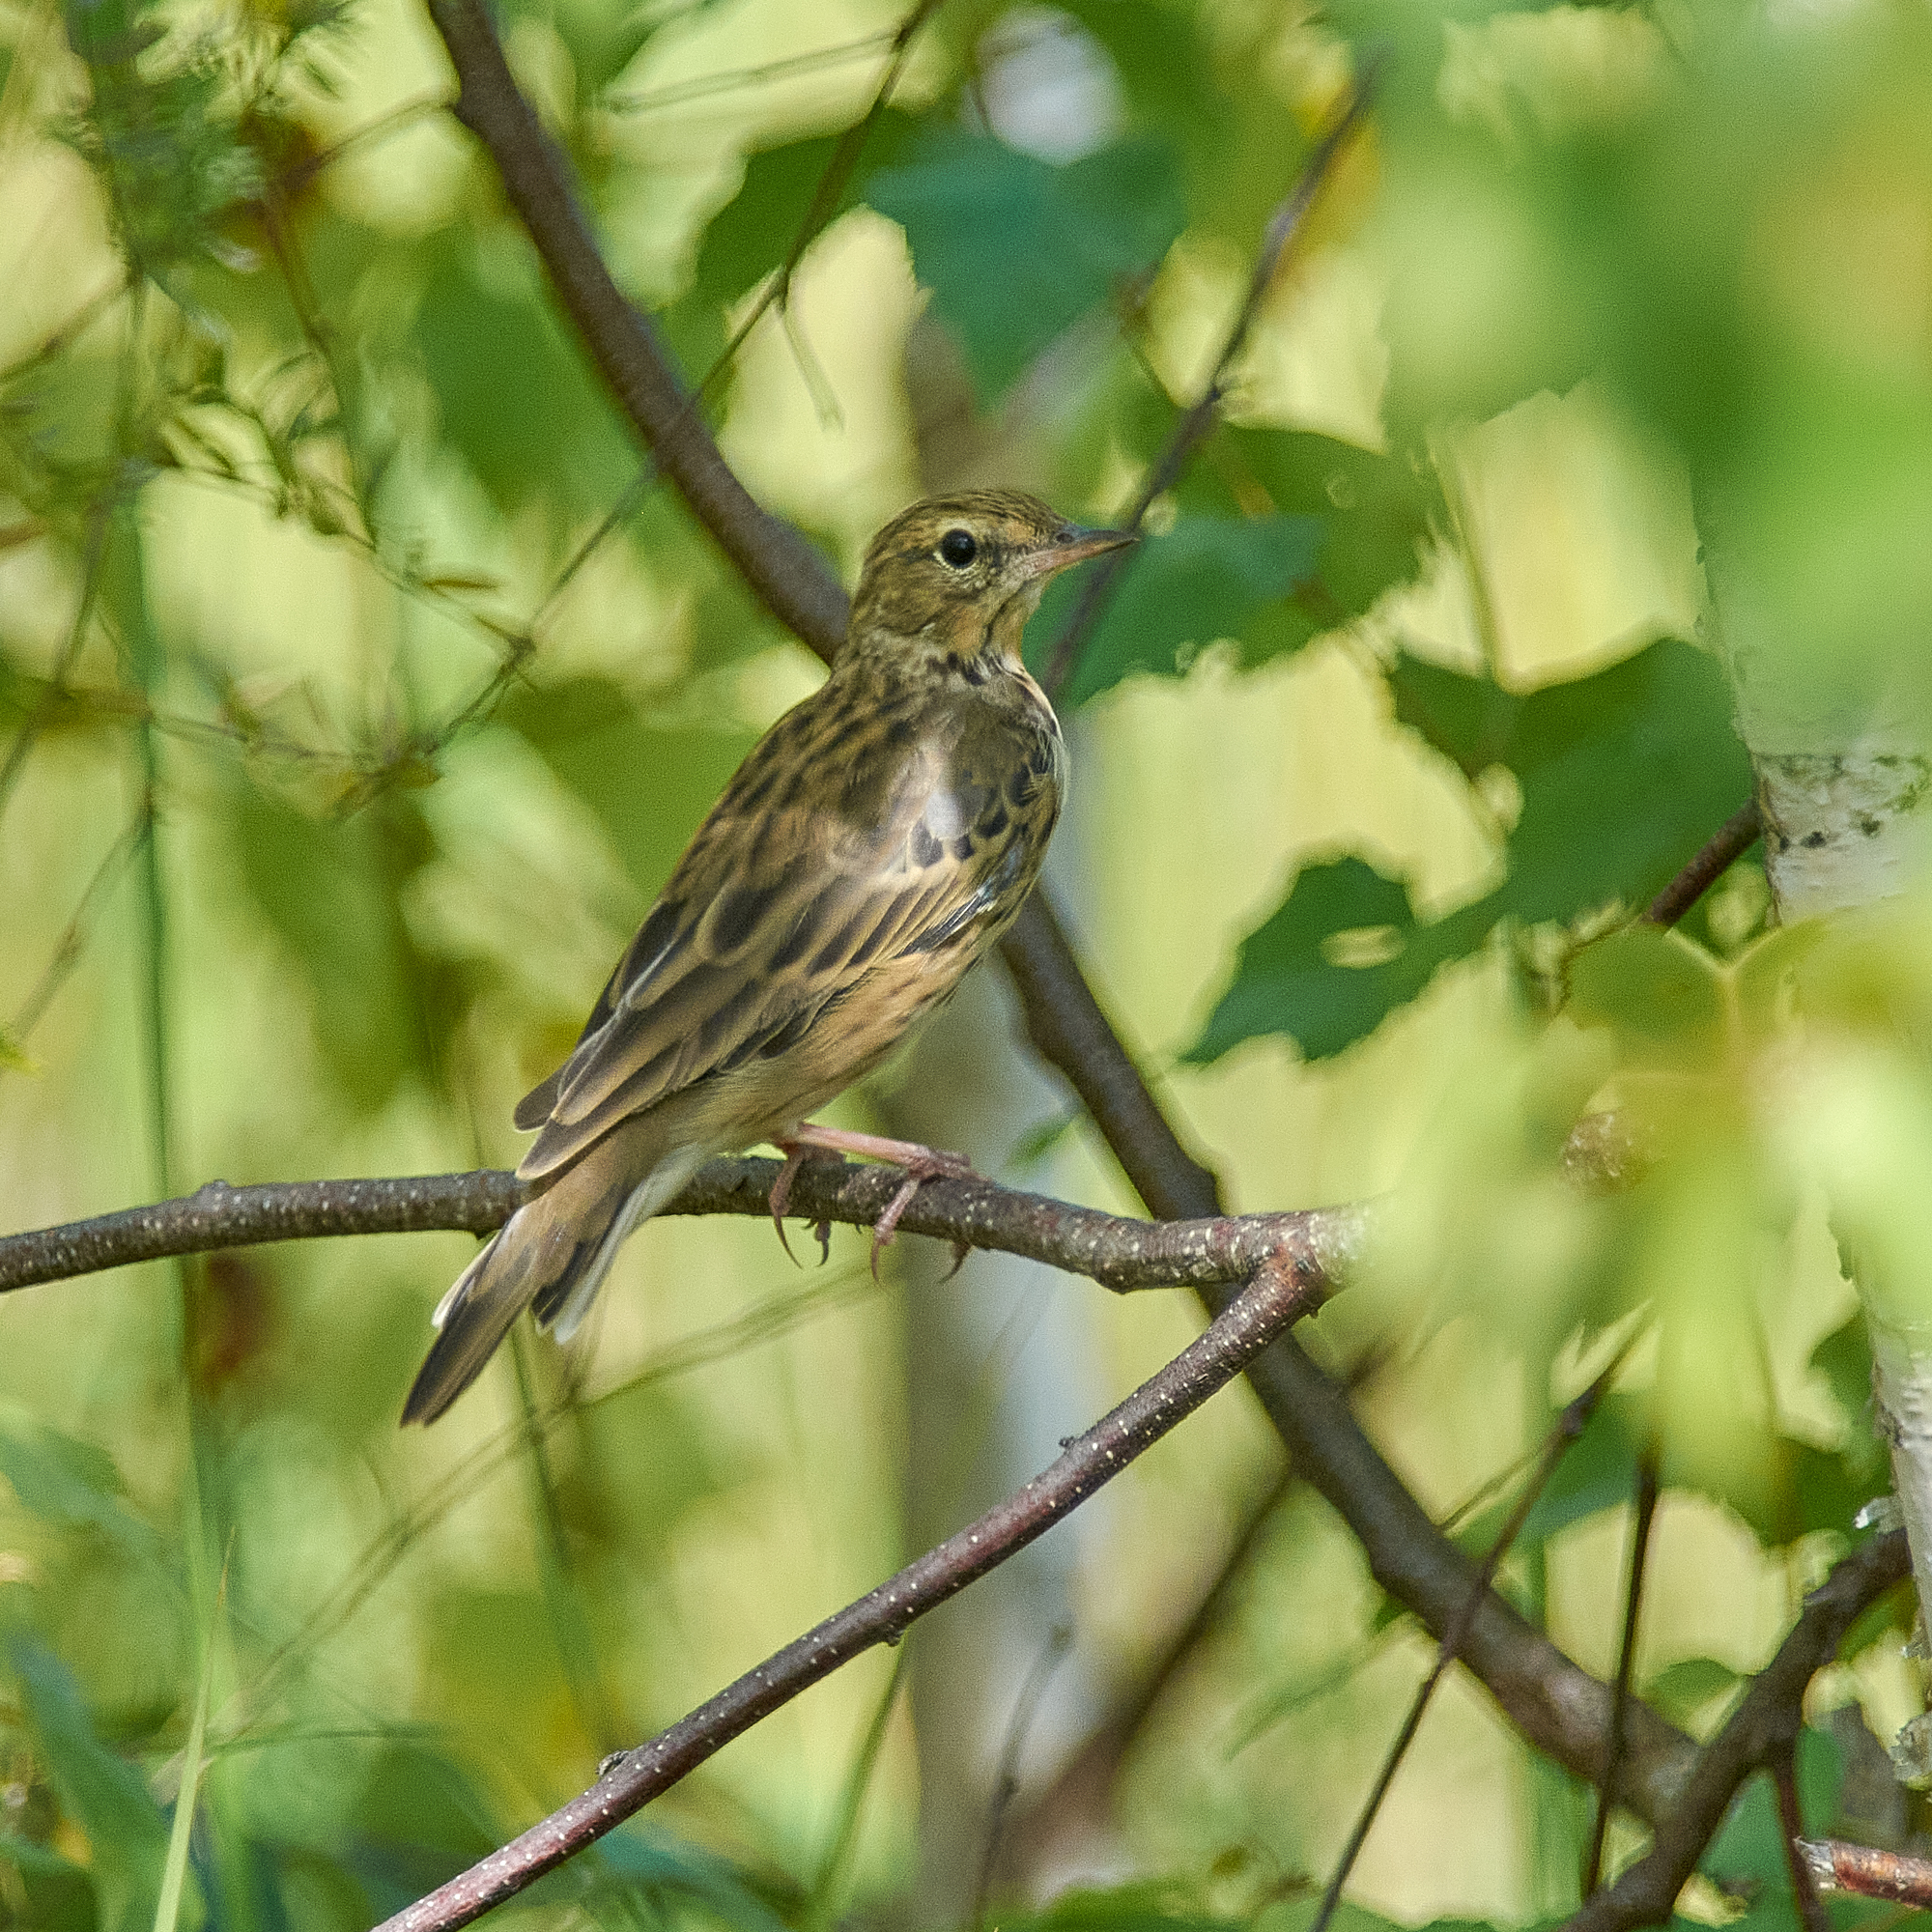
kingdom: Animalia
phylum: Chordata
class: Aves
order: Passeriformes
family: Motacillidae
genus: Anthus
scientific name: Anthus trivialis
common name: Tree pipit
